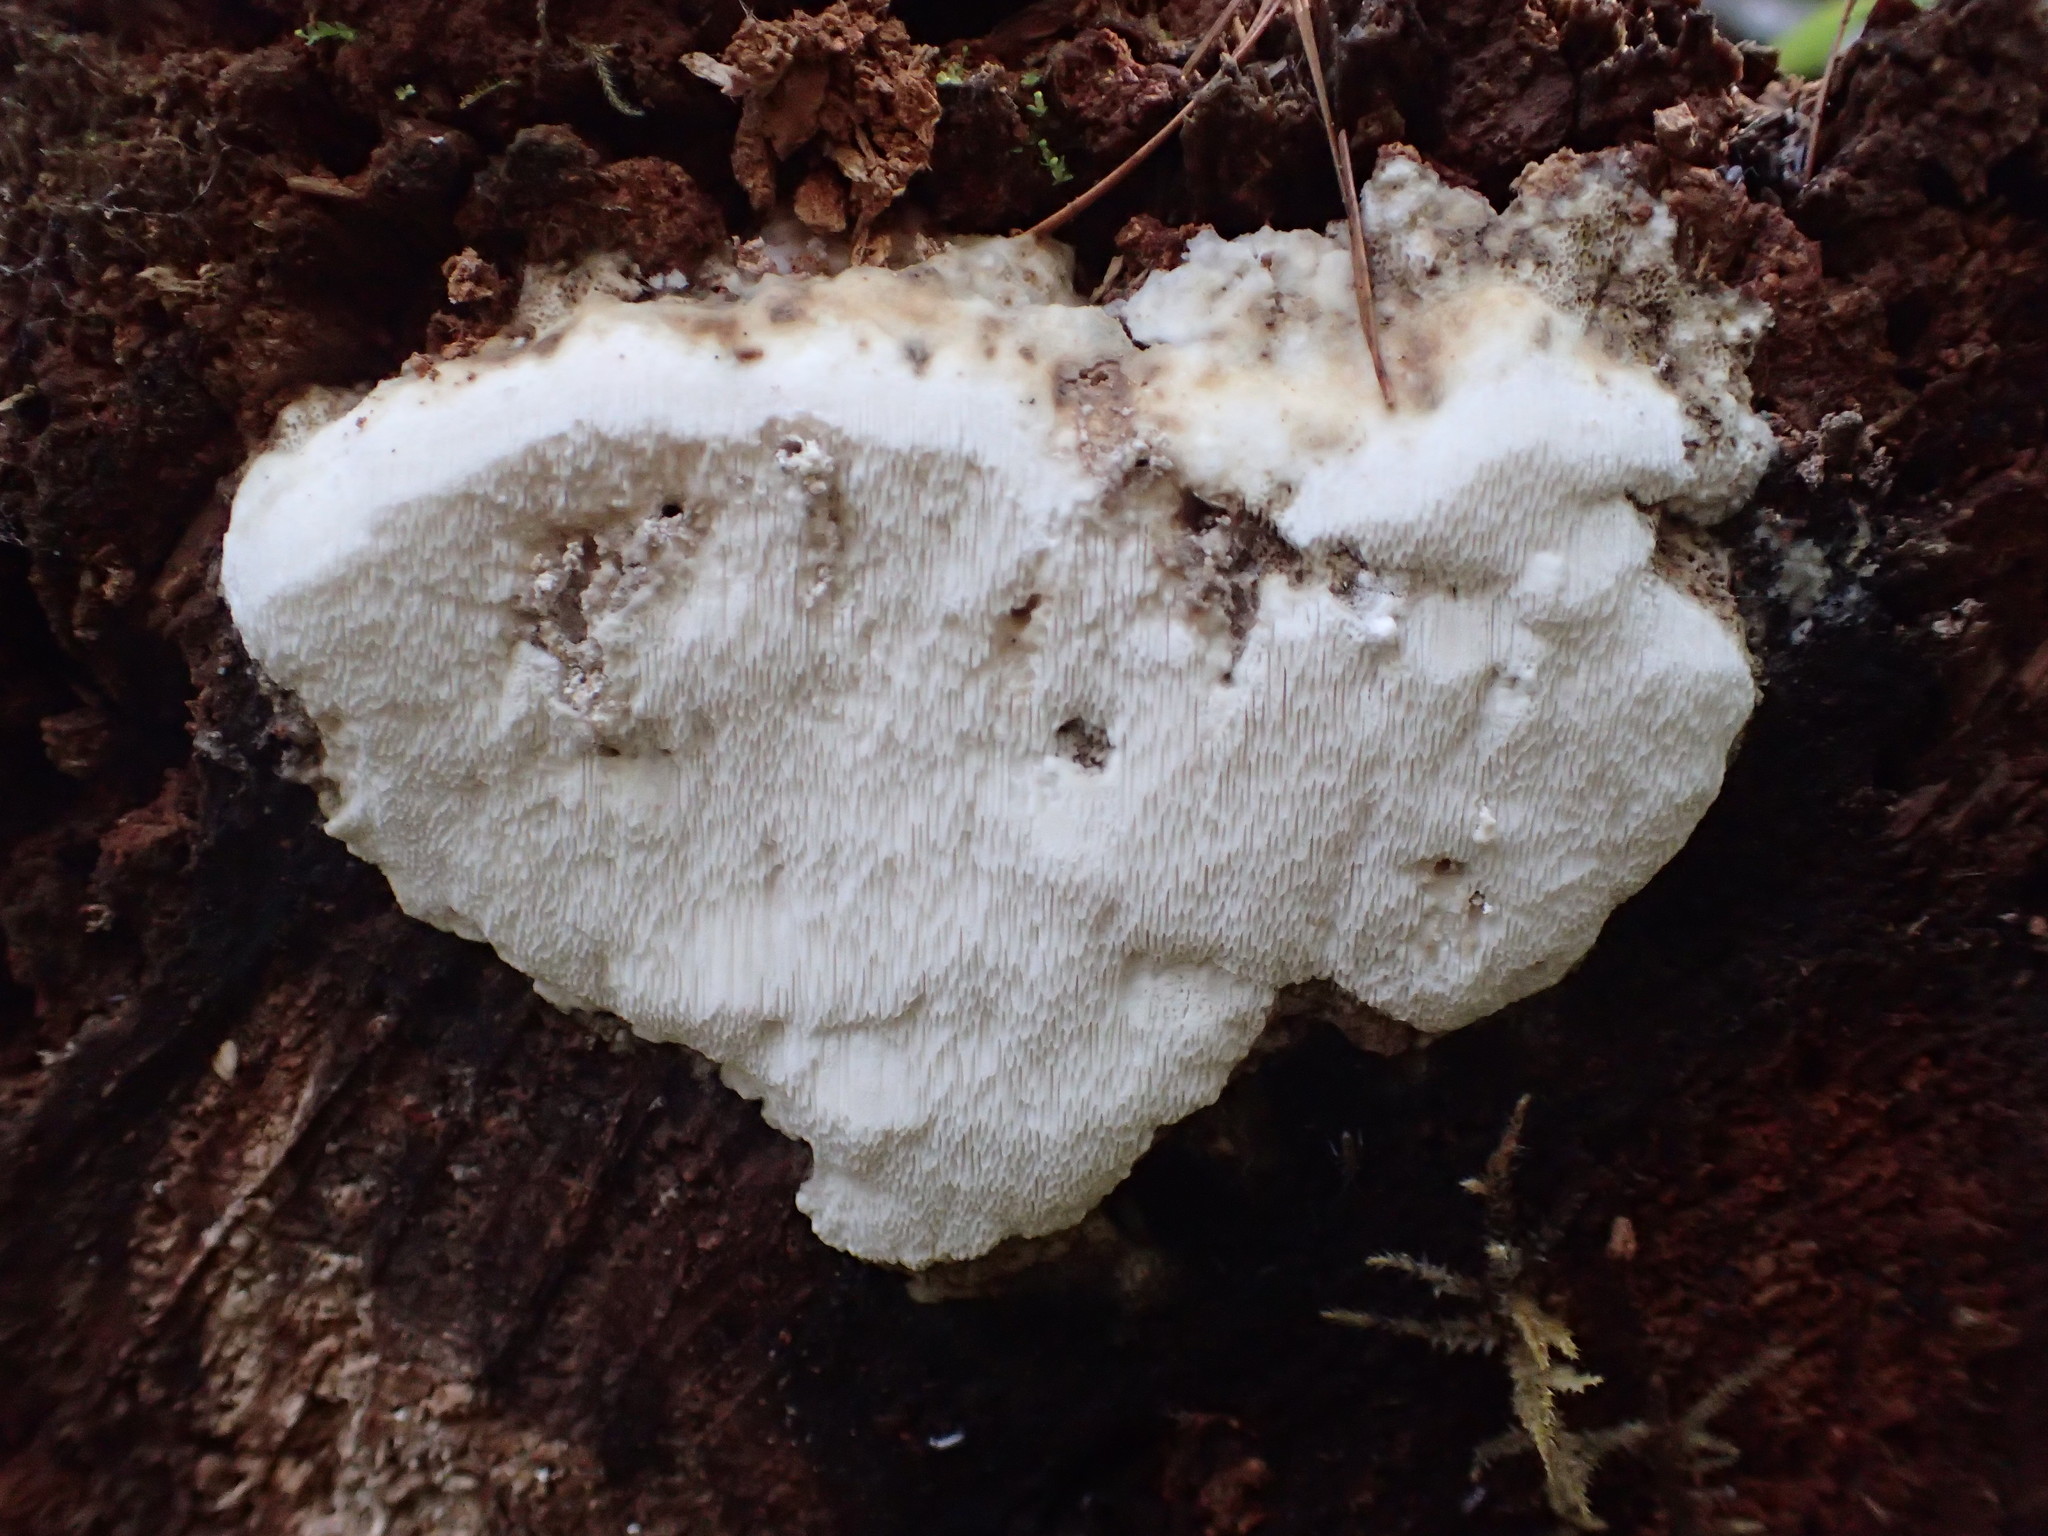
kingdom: Fungi
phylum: Basidiomycota
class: Agaricomycetes
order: Russulales
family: Hericiaceae
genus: Hericium
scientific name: Hericium erinaceus
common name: Bearded tooth
